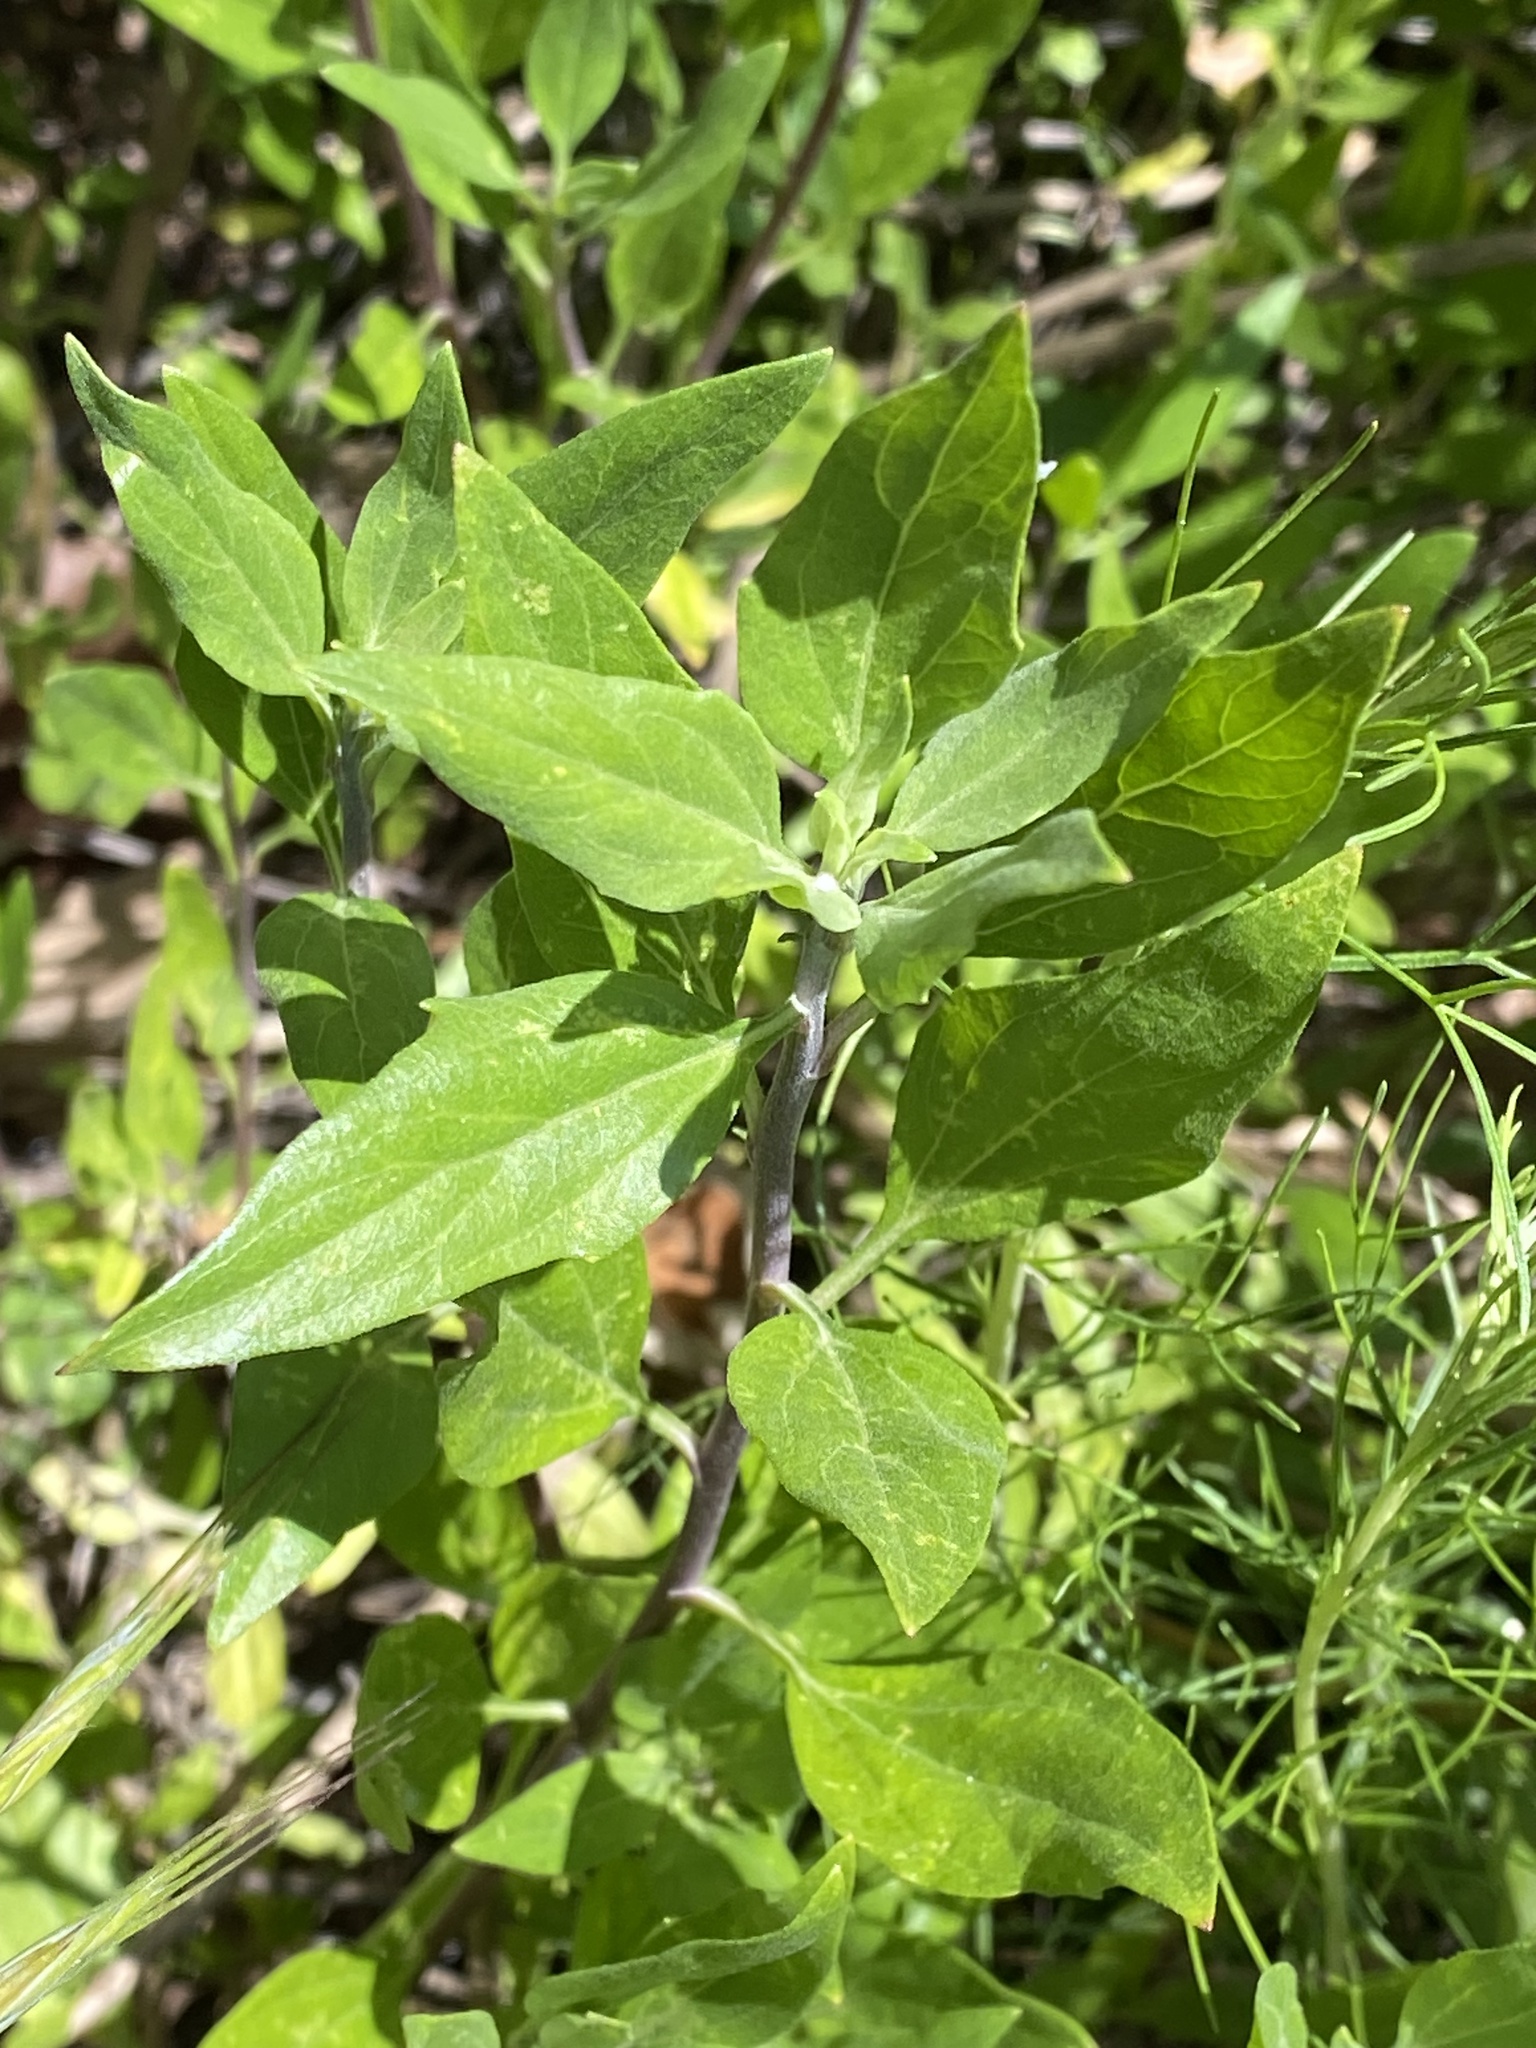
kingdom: Plantae
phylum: Tracheophyta
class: Magnoliopsida
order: Asterales
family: Asteraceae
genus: Encelia
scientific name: Encelia californica
